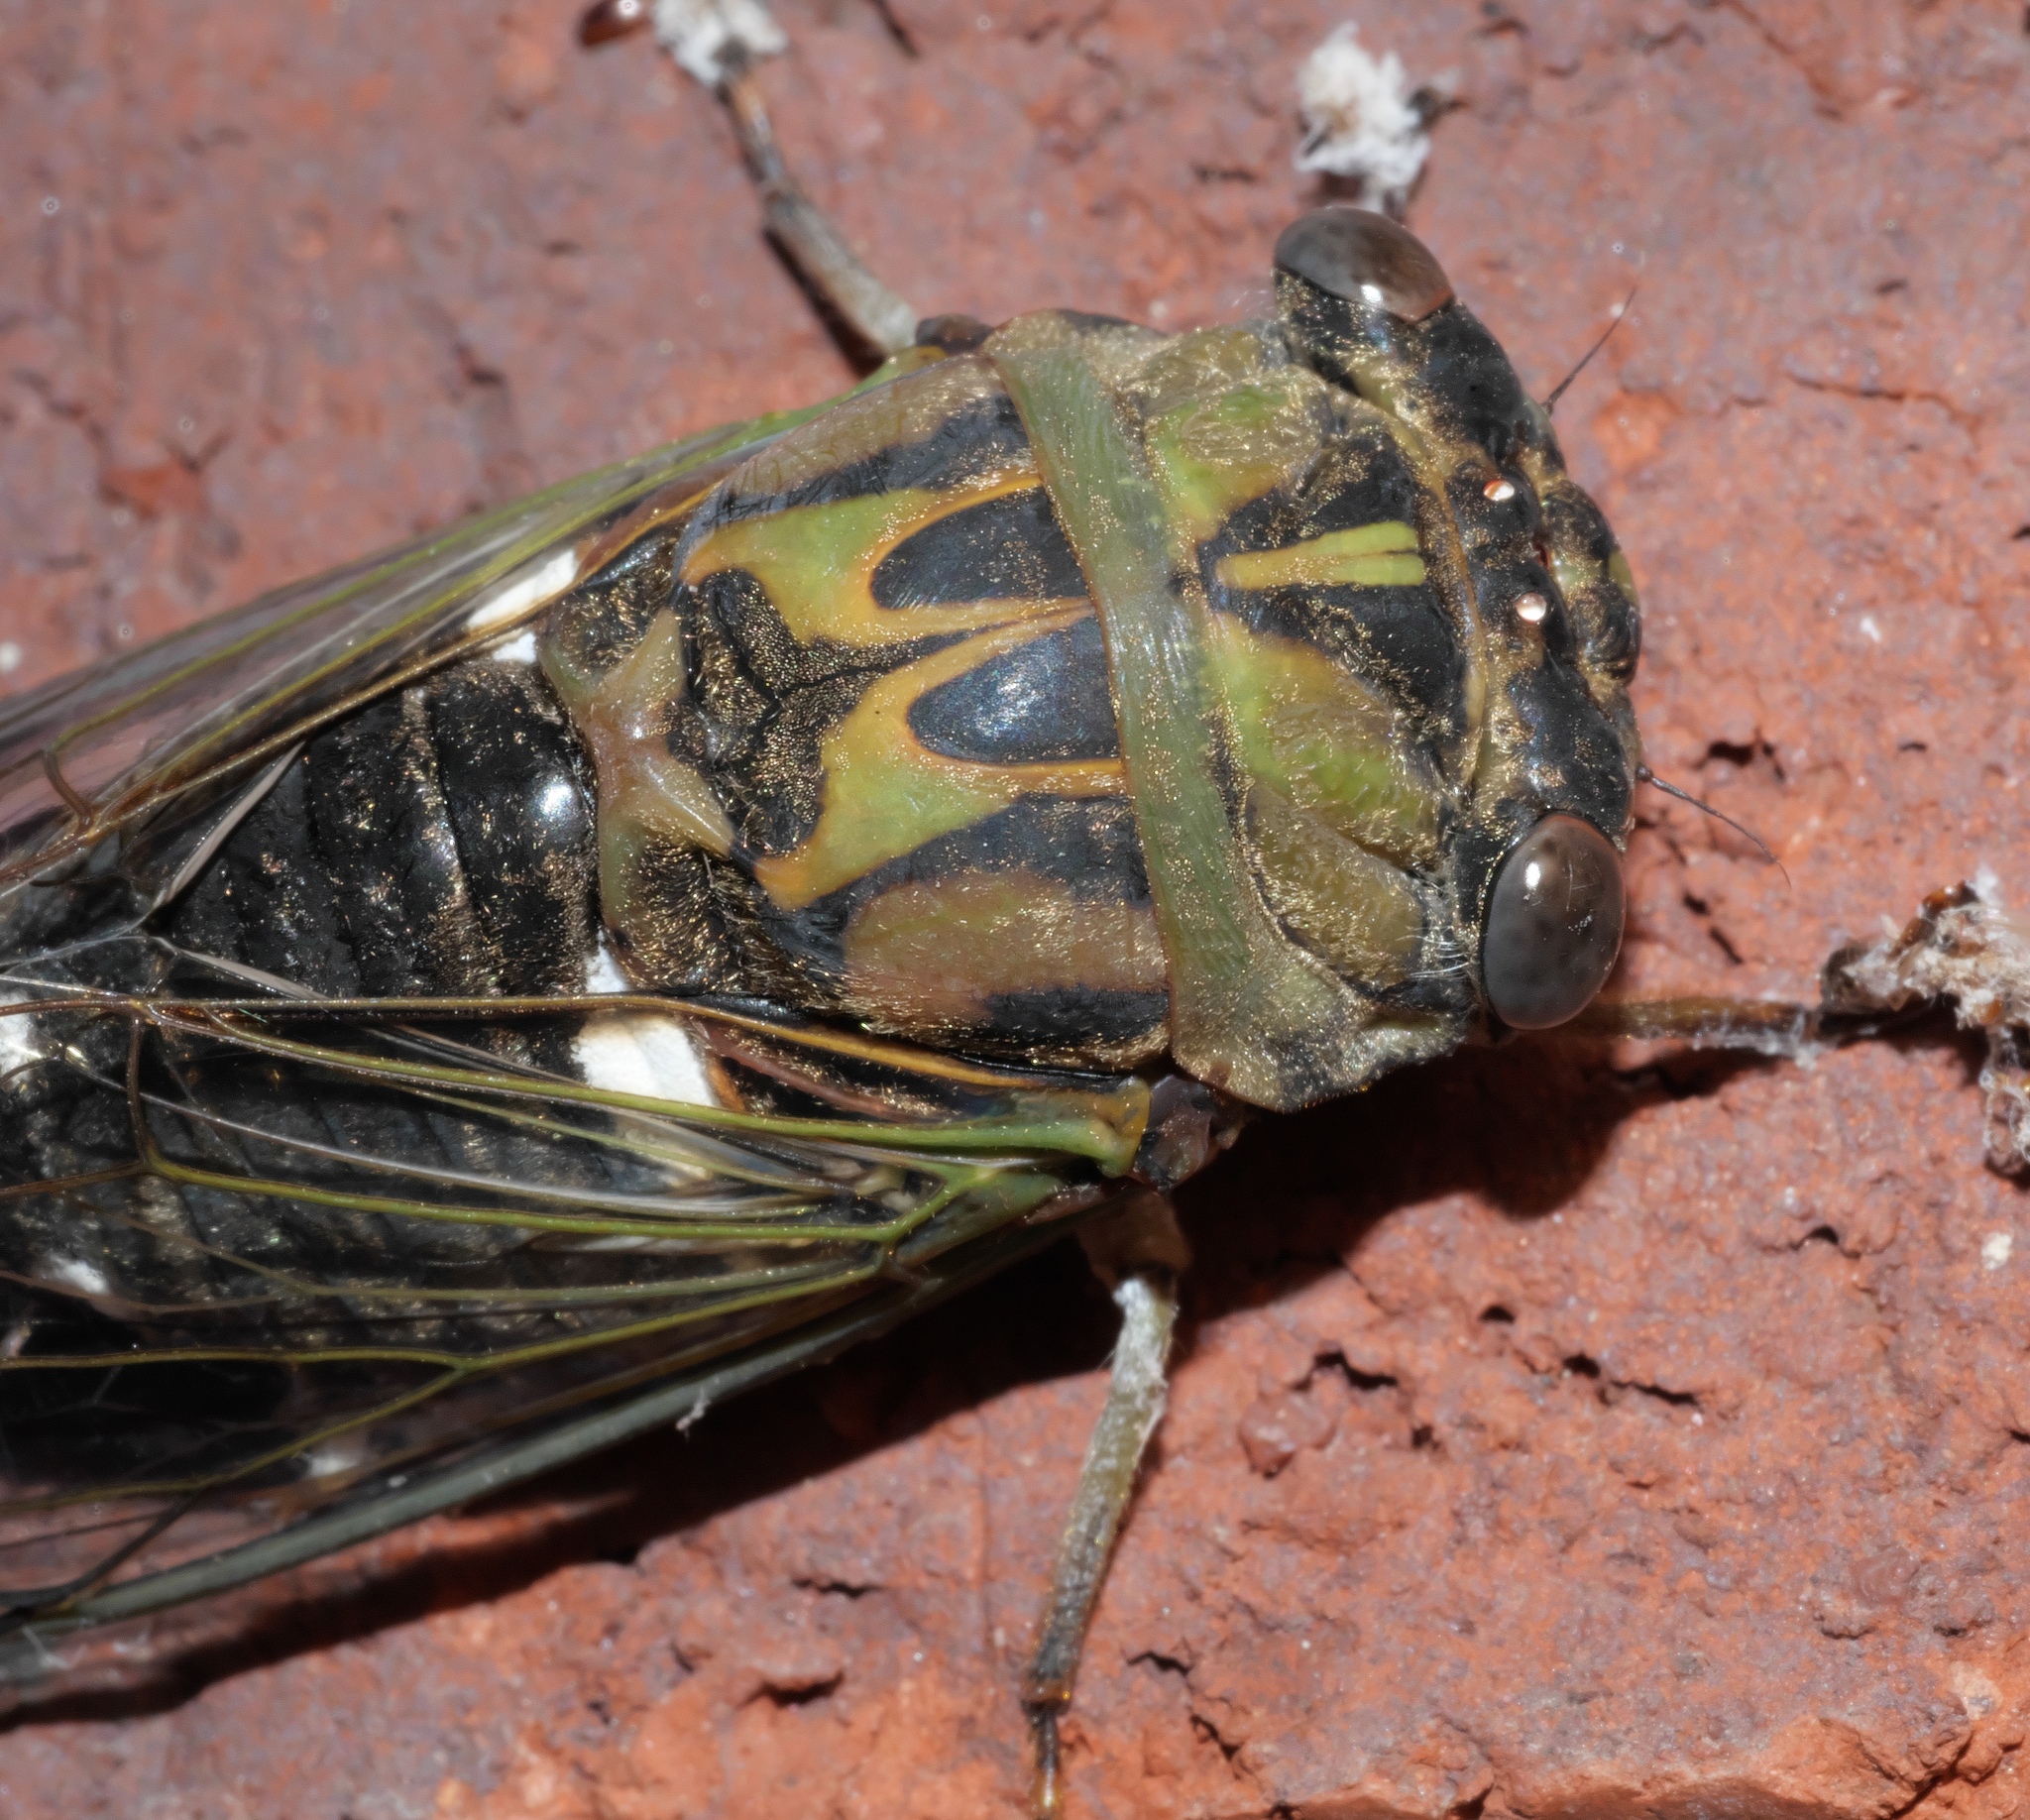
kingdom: Animalia
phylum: Arthropoda
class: Insecta
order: Hemiptera
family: Cicadidae
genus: Neotibicen
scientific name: Neotibicen pruinosus
